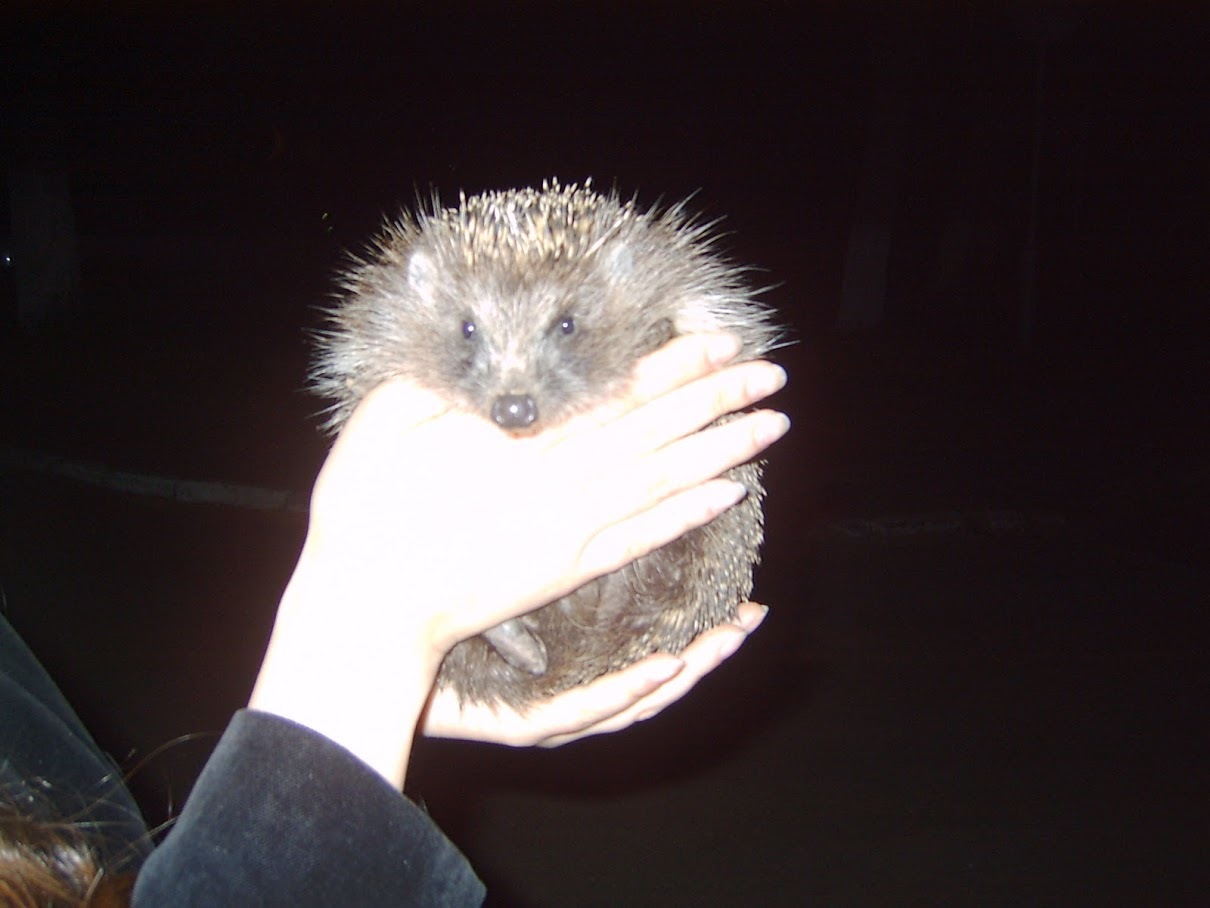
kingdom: Animalia
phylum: Chordata
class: Mammalia
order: Erinaceomorpha
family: Erinaceidae
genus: Erinaceus
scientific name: Erinaceus roumanicus
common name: Northern white-breasted hedgehog
